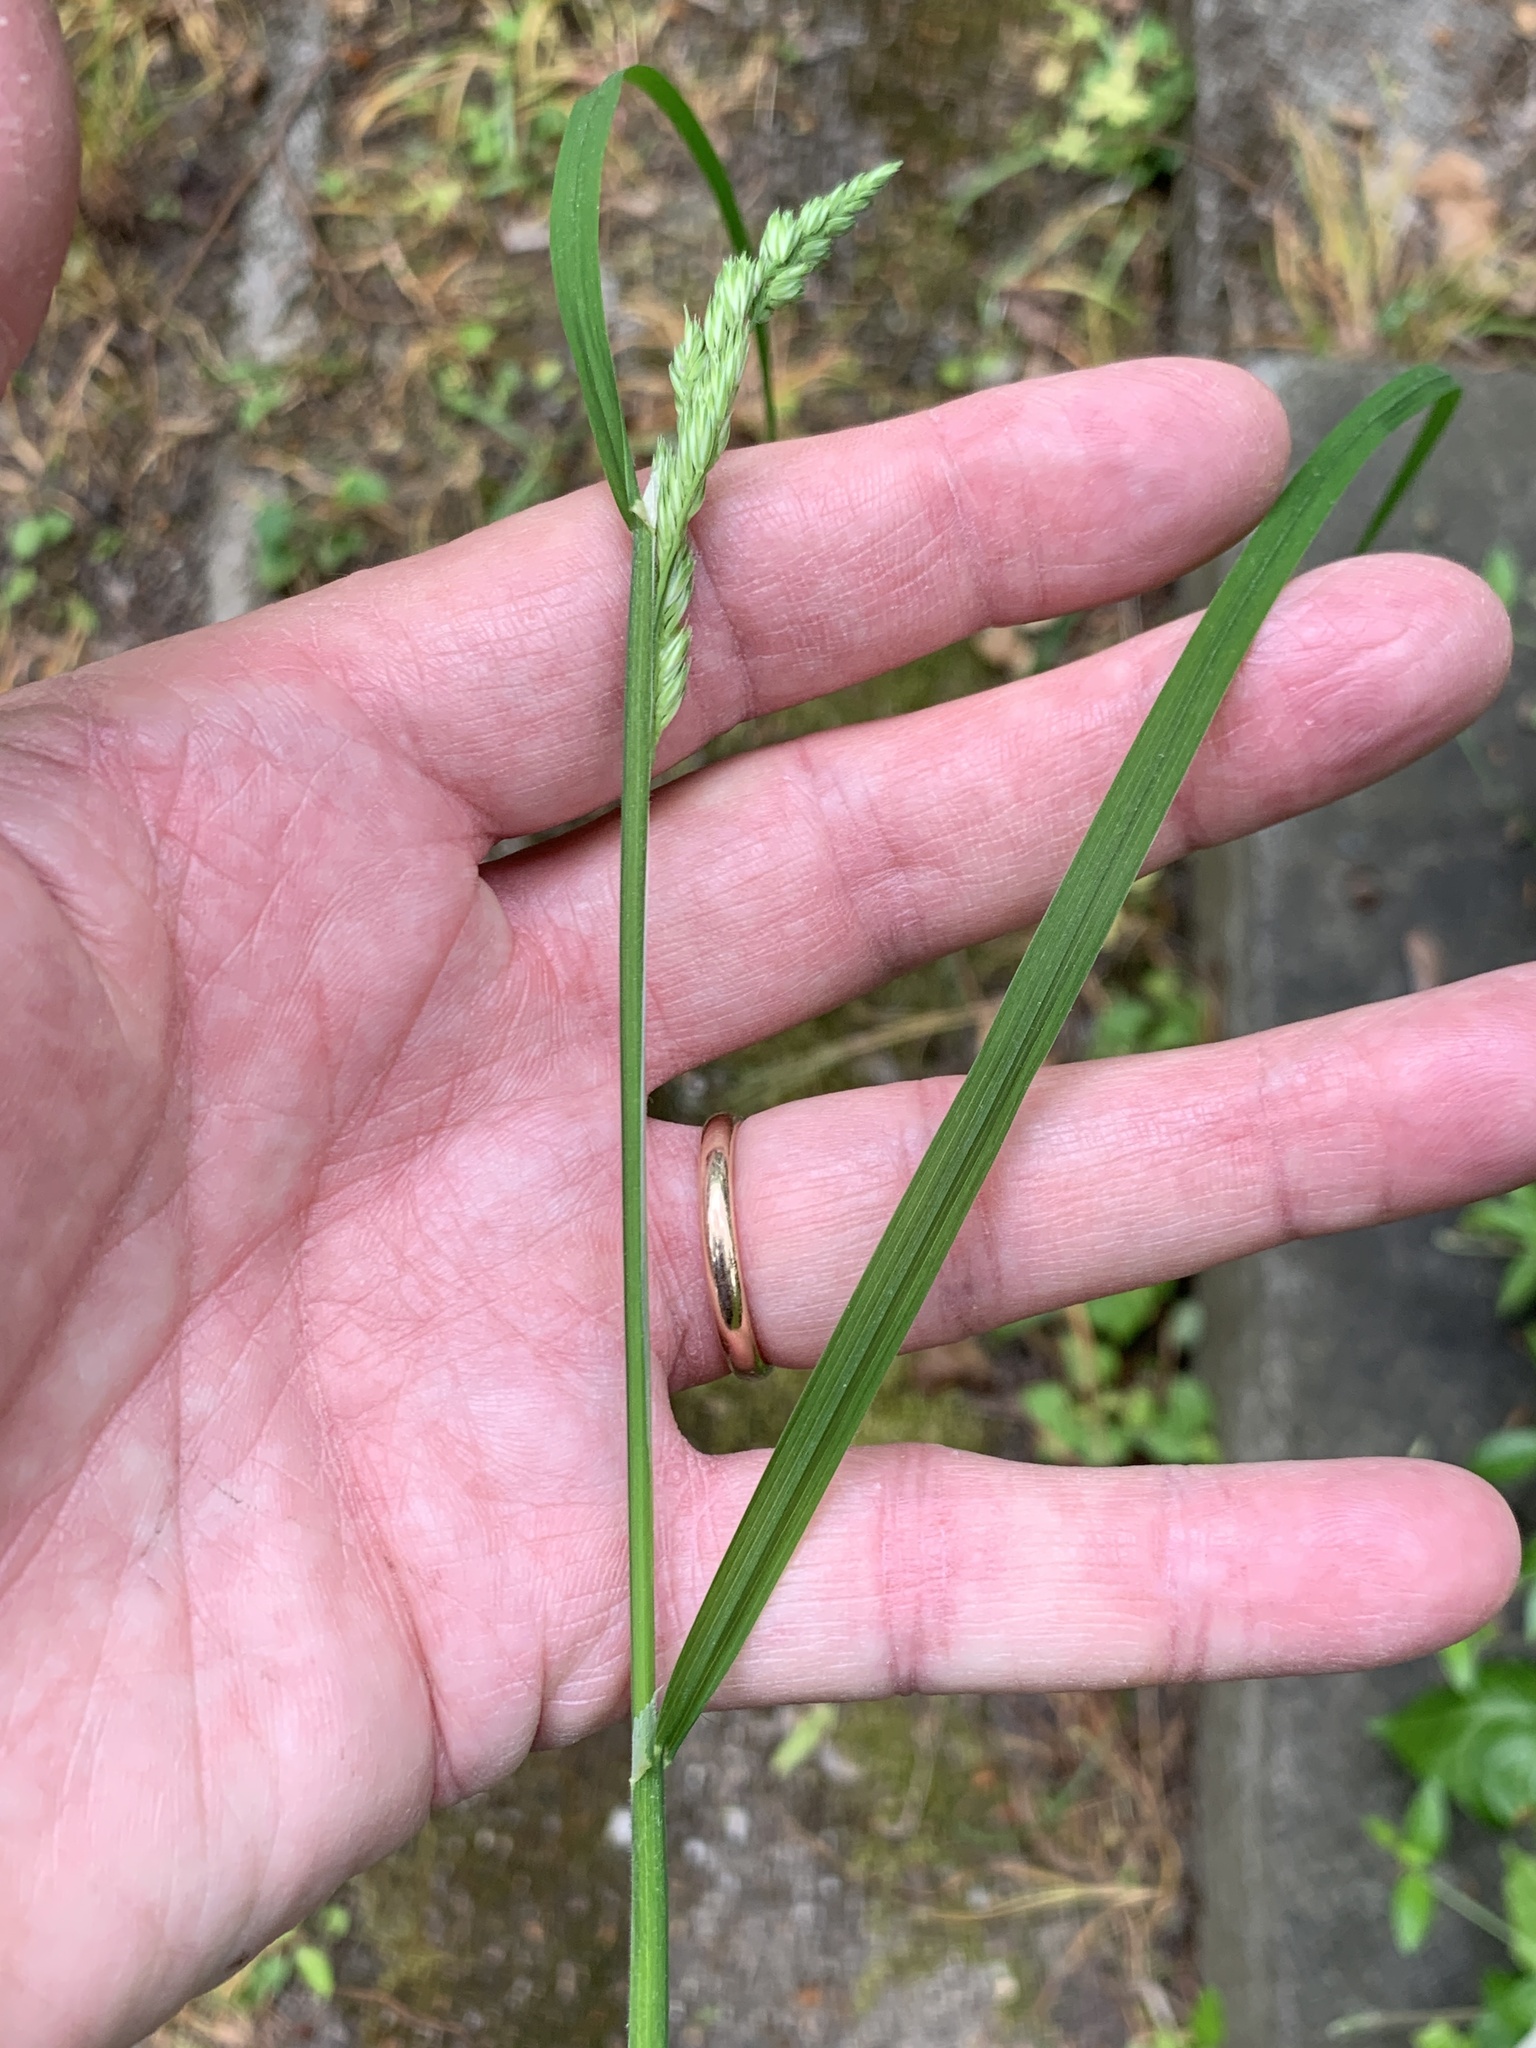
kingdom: Plantae
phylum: Tracheophyta
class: Liliopsida
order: Poales
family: Poaceae
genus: Dactylis
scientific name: Dactylis glomerata
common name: Orchardgrass
